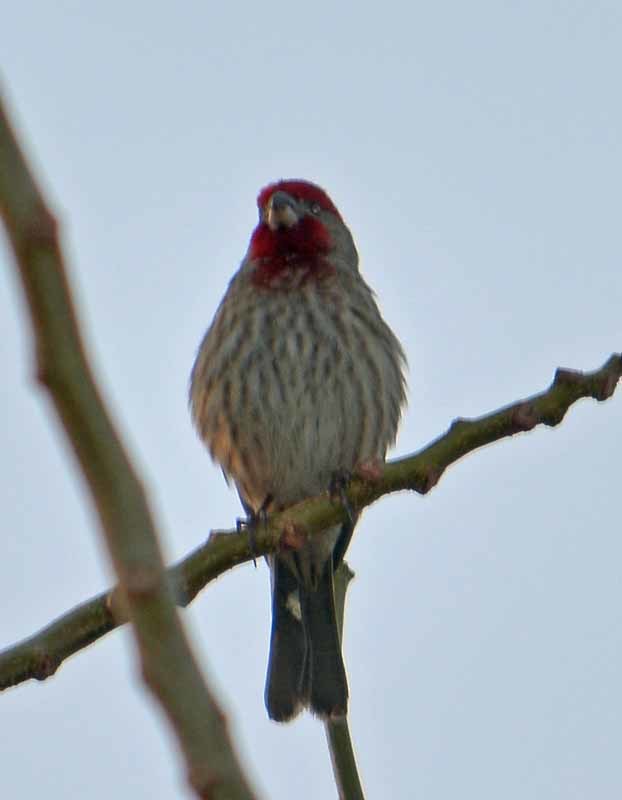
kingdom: Animalia
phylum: Chordata
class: Aves
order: Passeriformes
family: Fringillidae
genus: Haemorhous
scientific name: Haemorhous mexicanus
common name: House finch
